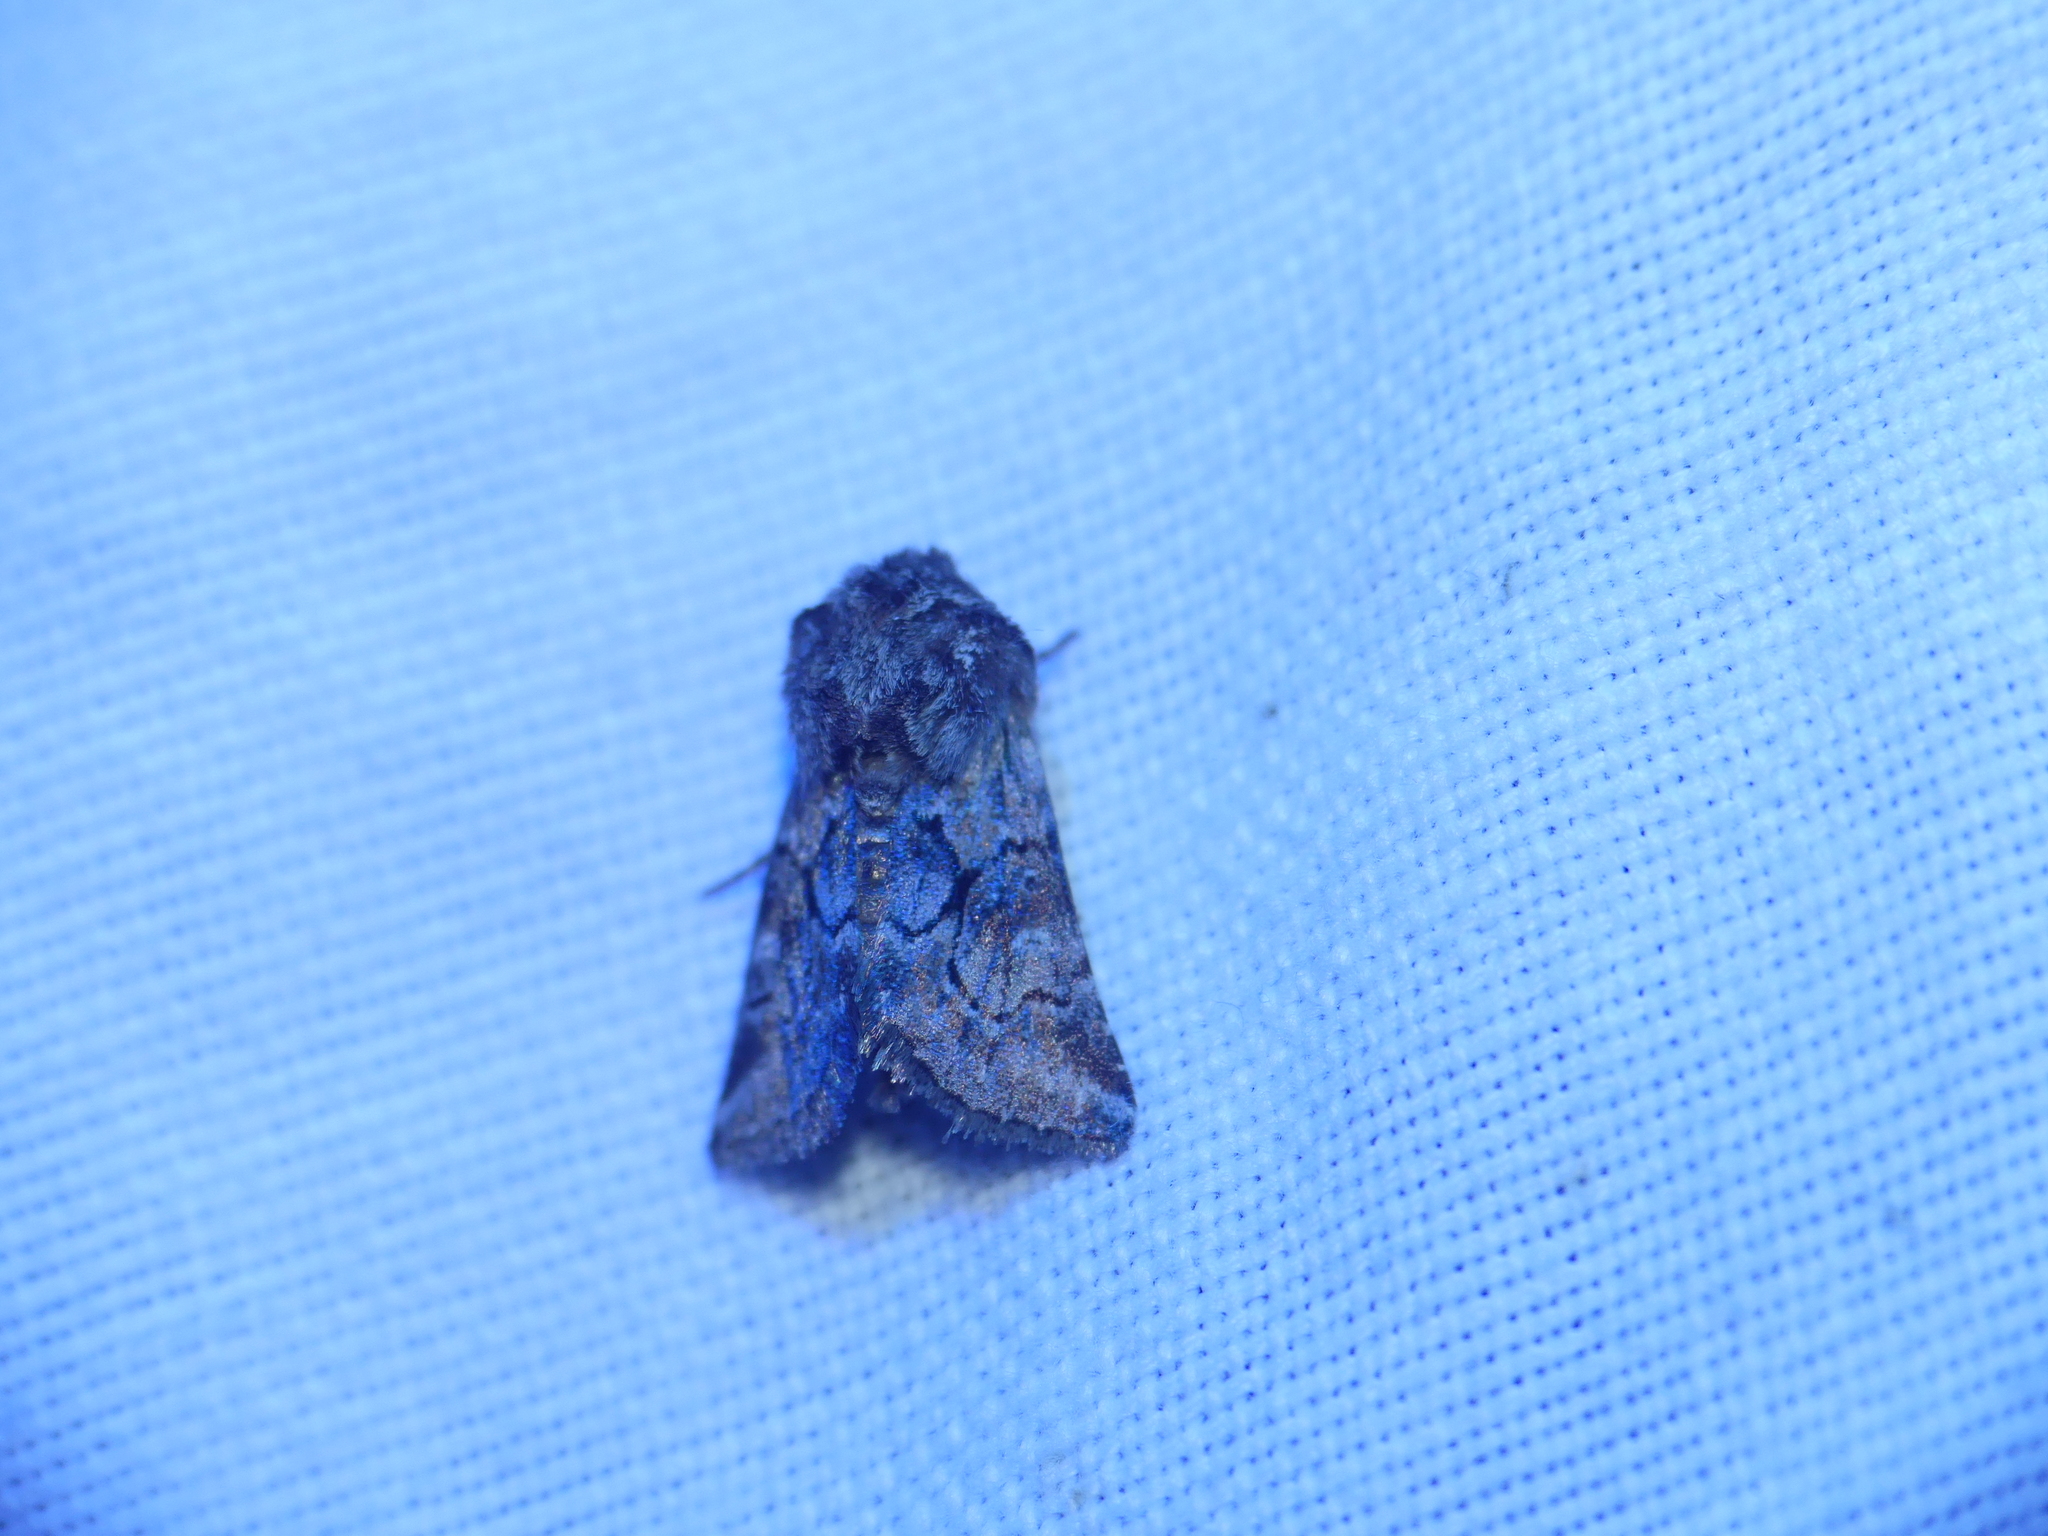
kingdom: Animalia
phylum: Arthropoda
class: Insecta
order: Lepidoptera
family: Noctuidae
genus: Cleonymia
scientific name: Cleonymia yvanii
